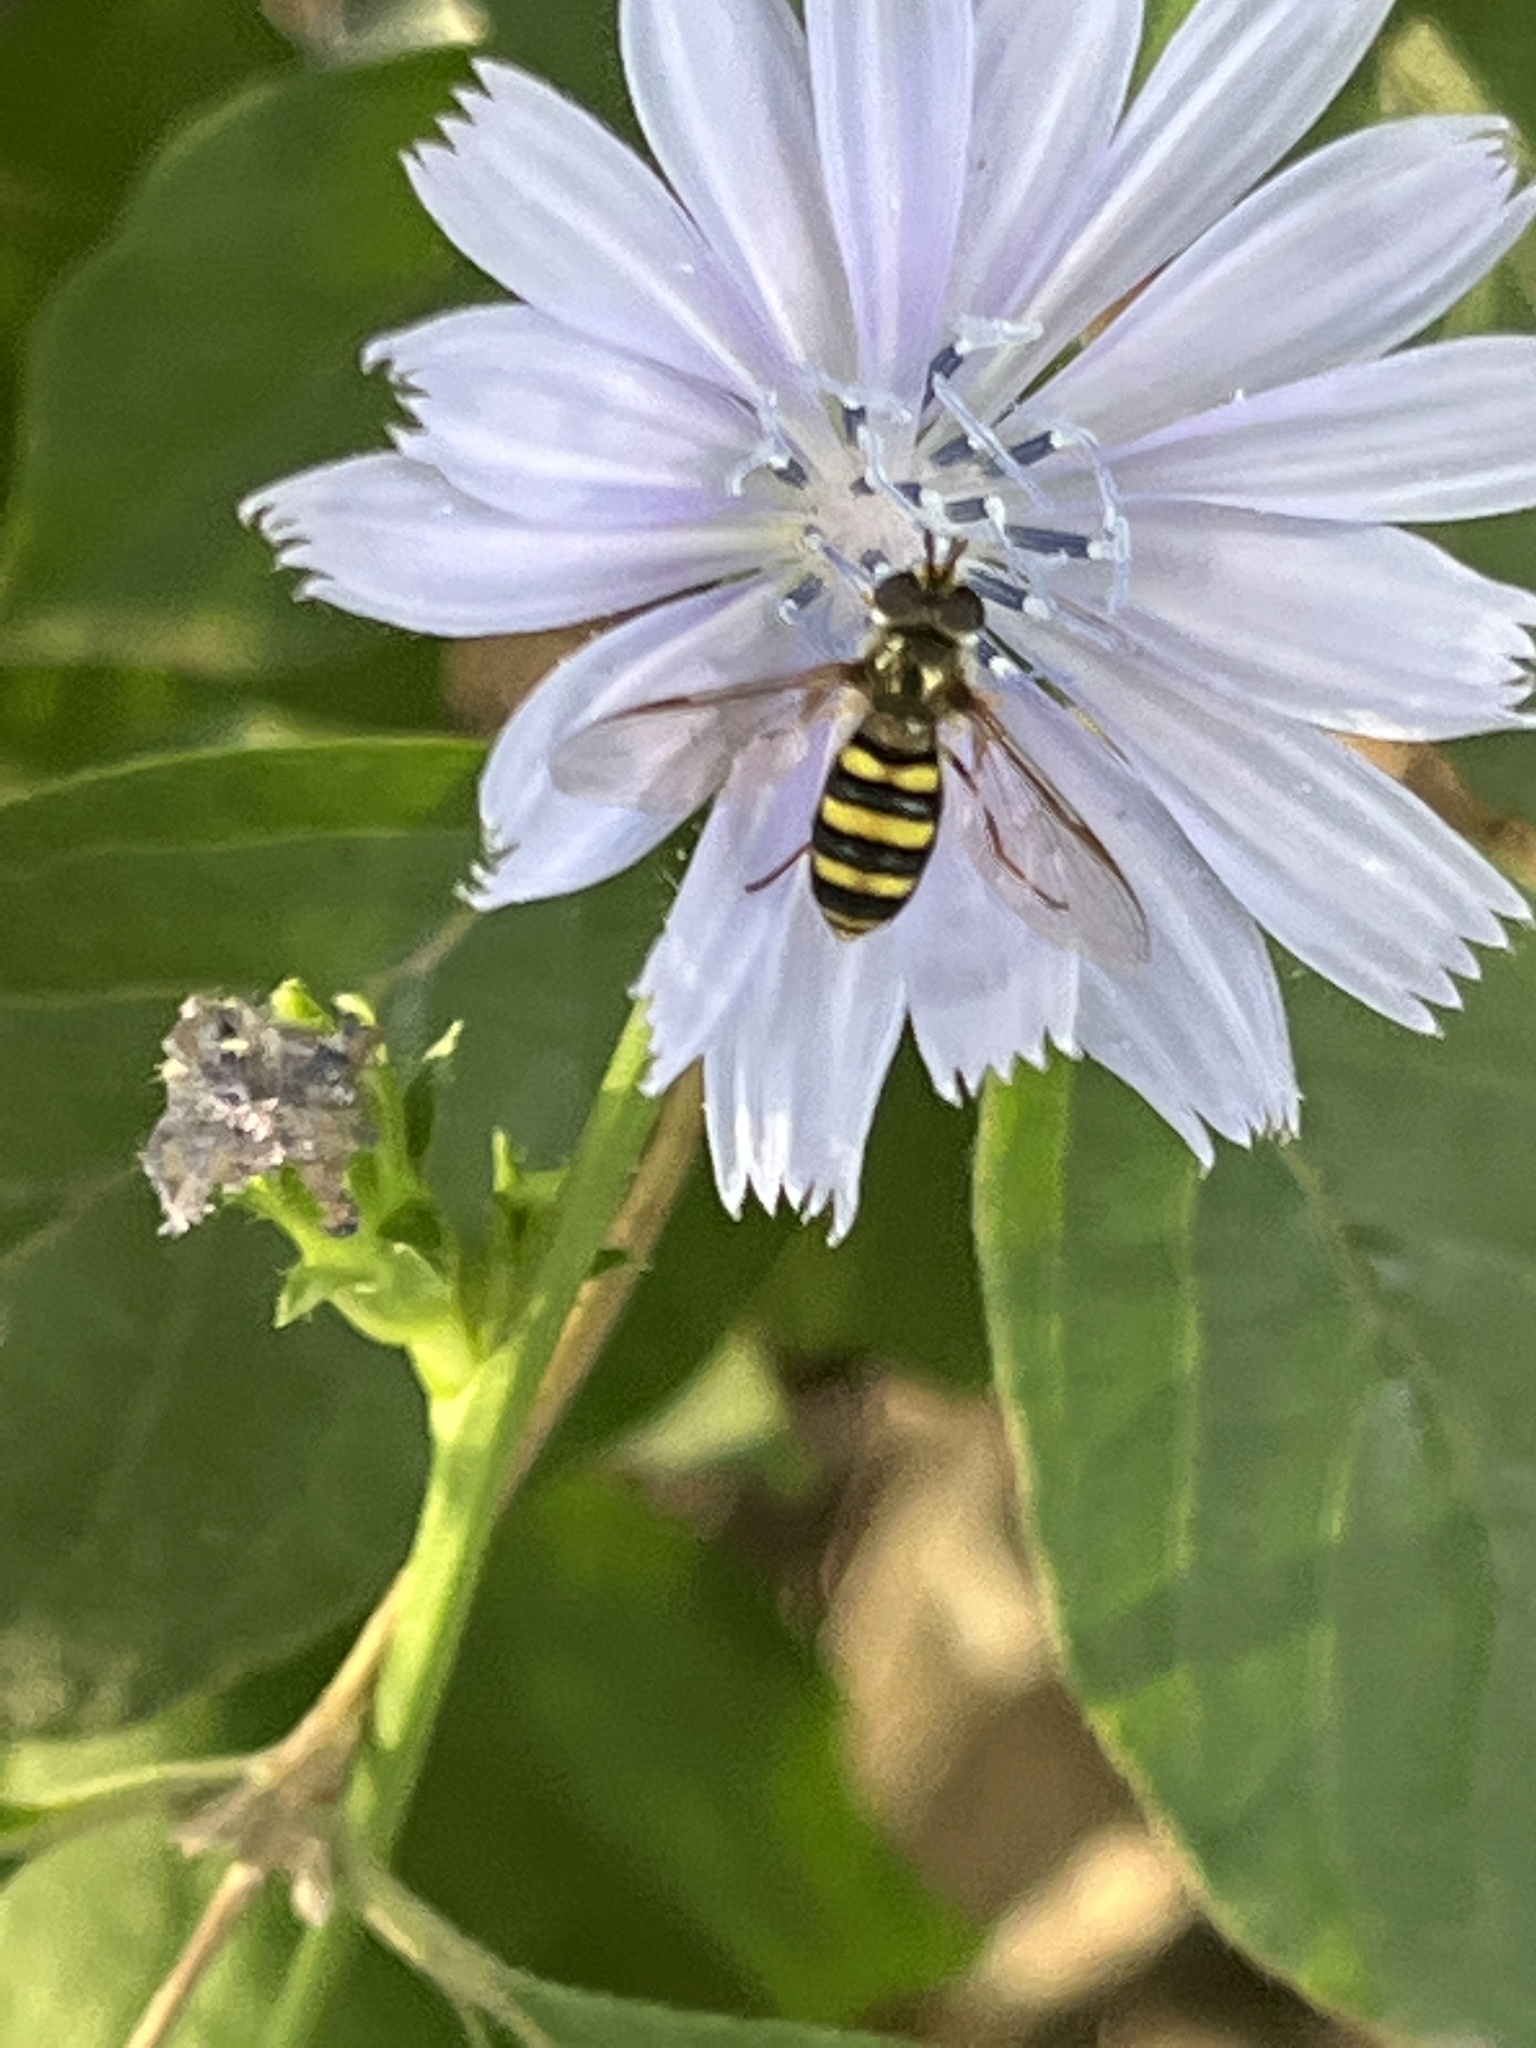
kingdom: Animalia
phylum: Arthropoda
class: Insecta
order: Diptera
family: Syrphidae
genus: Eupeodes
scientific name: Eupeodes
